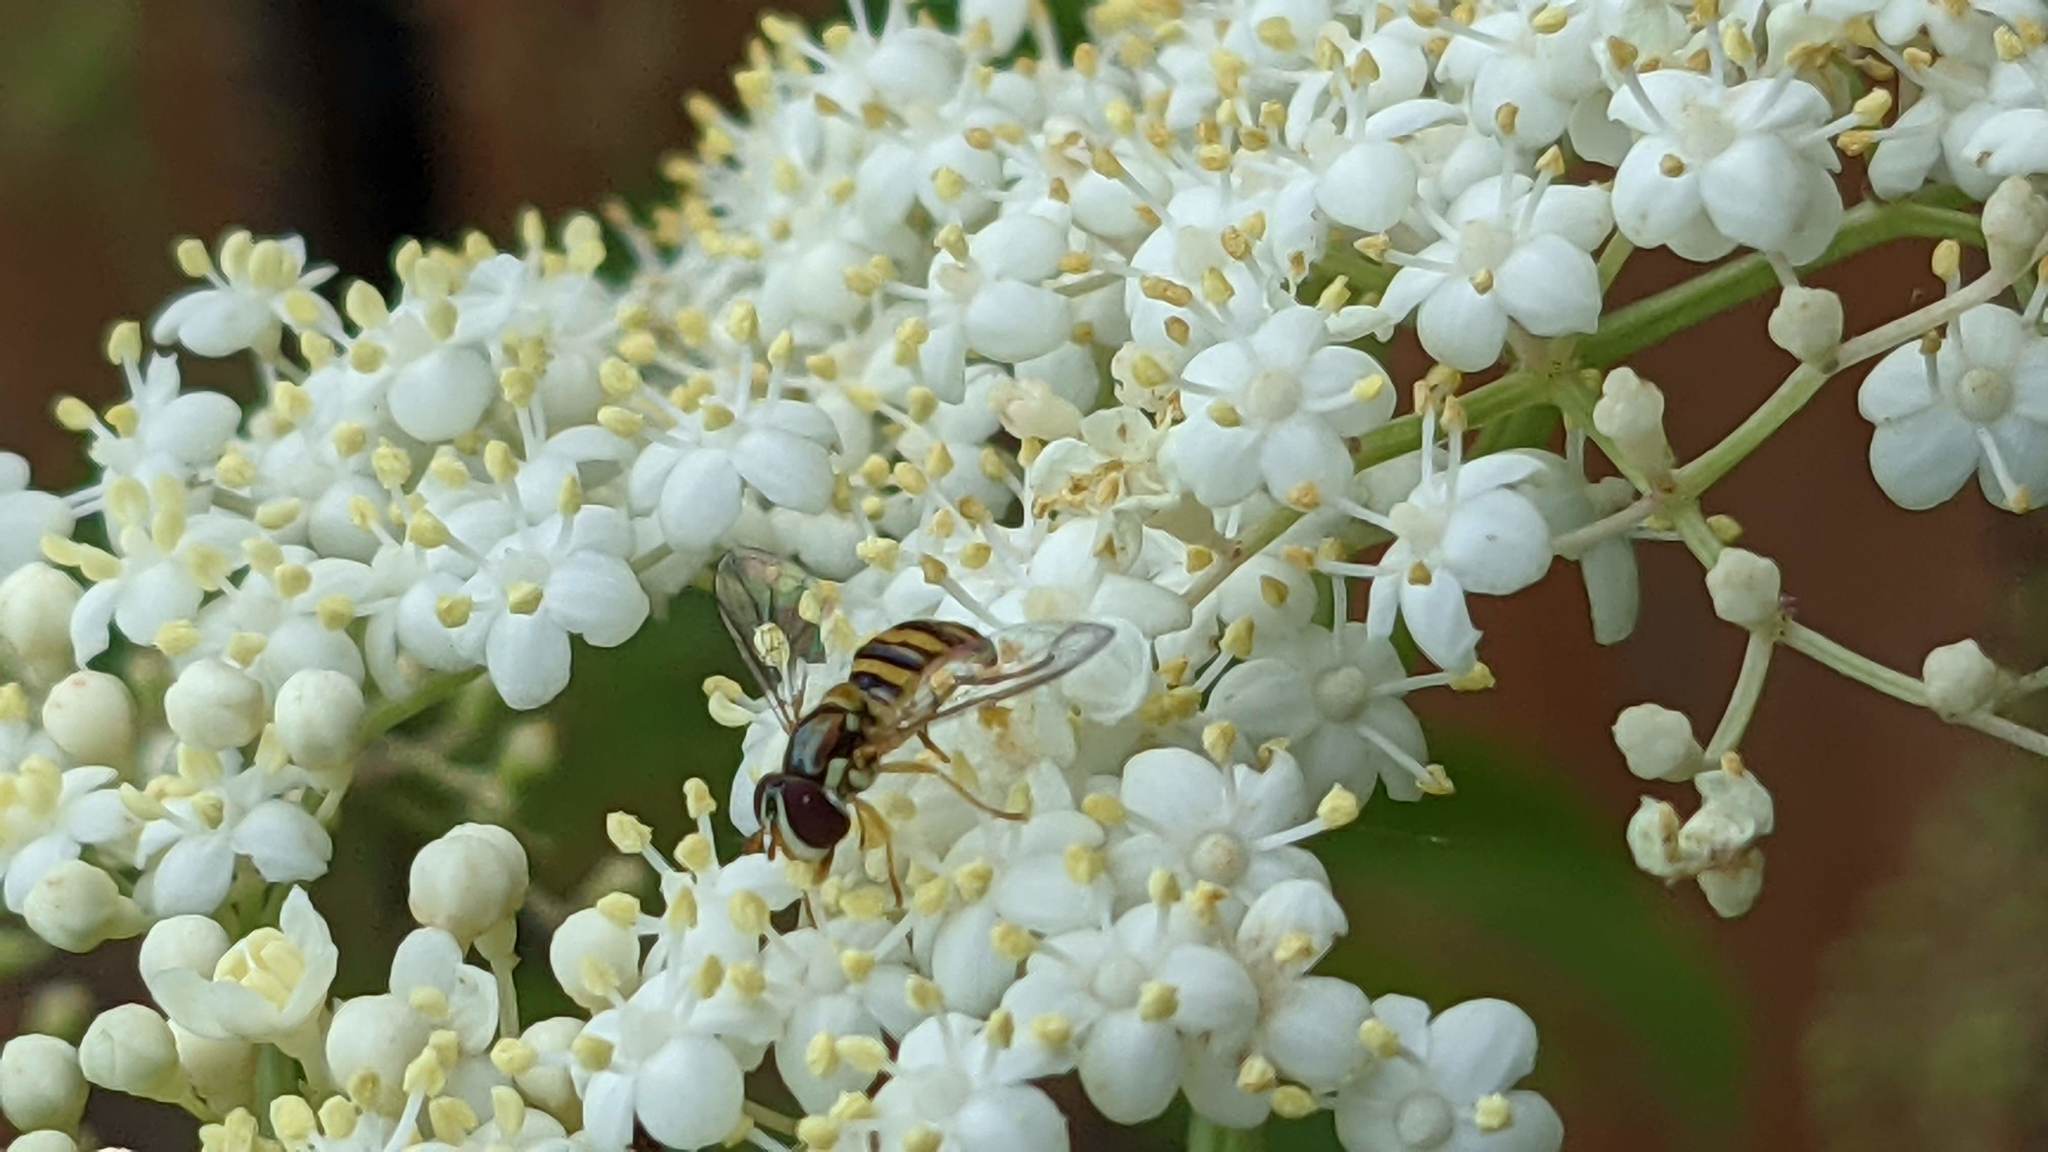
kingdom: Animalia
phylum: Arthropoda
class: Insecta
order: Diptera
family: Syrphidae
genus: Allograpta
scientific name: Allograpta obliqua
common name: Common oblique syrphid
